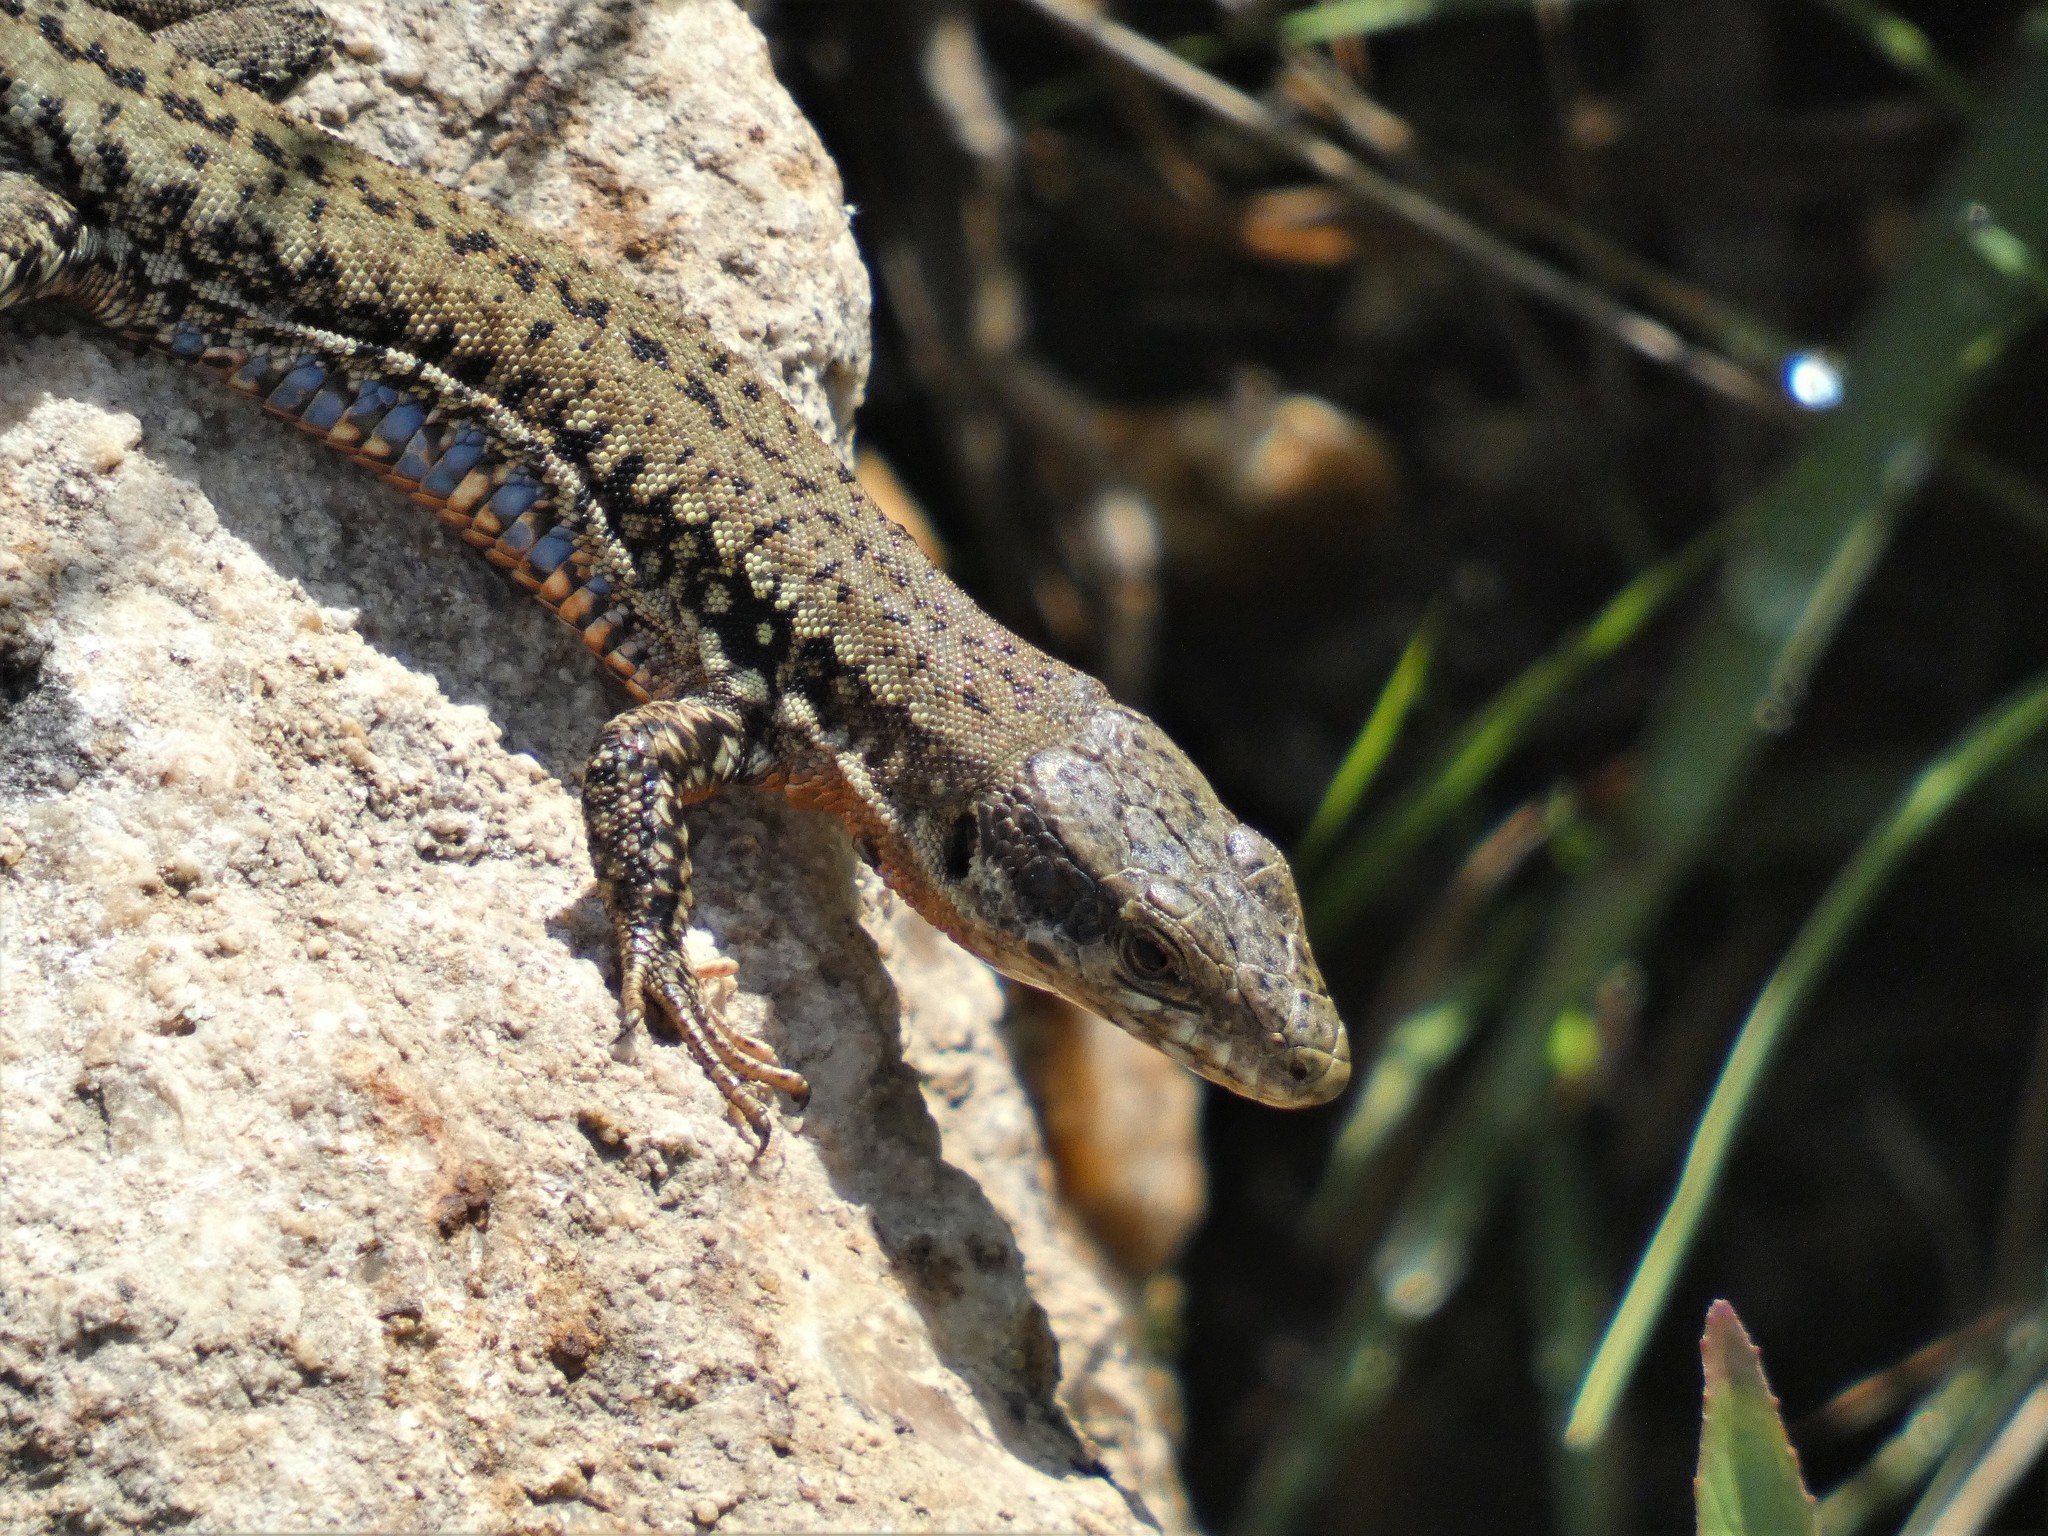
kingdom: Animalia
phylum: Chordata
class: Squamata
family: Lacertidae
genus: Podarcis
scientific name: Podarcis muralis
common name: Common wall lizard
